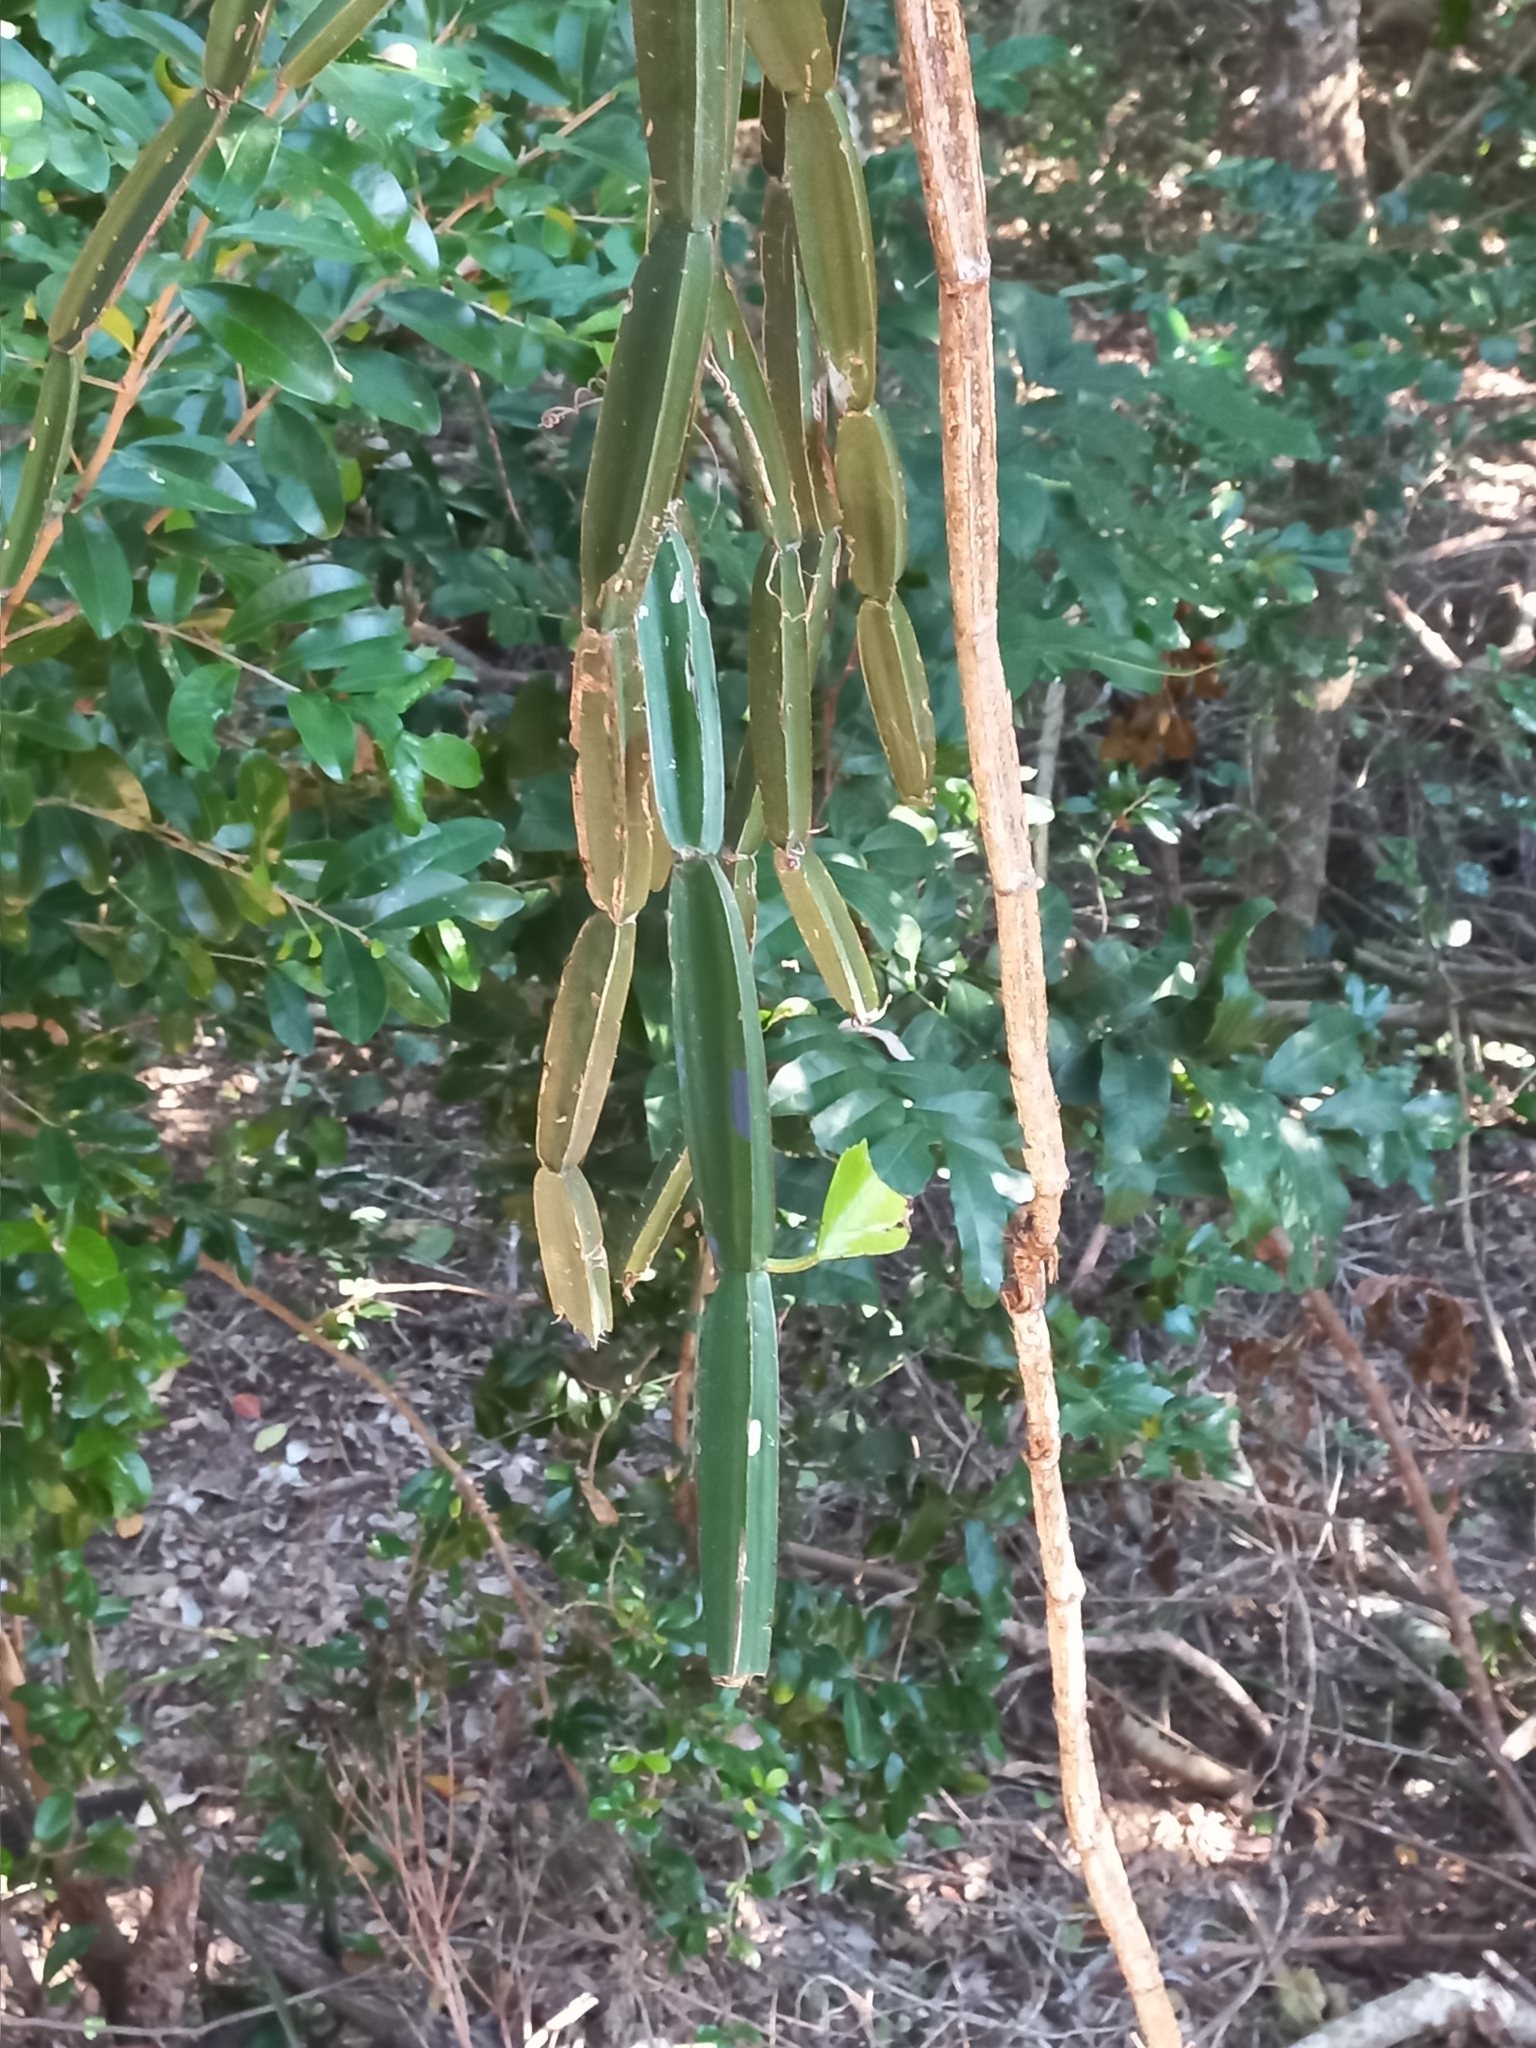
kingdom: Plantae
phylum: Tracheophyta
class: Magnoliopsida
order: Vitales
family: Vitaceae
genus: Cissus
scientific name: Cissus quadrangularis
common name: Veldt-grape
